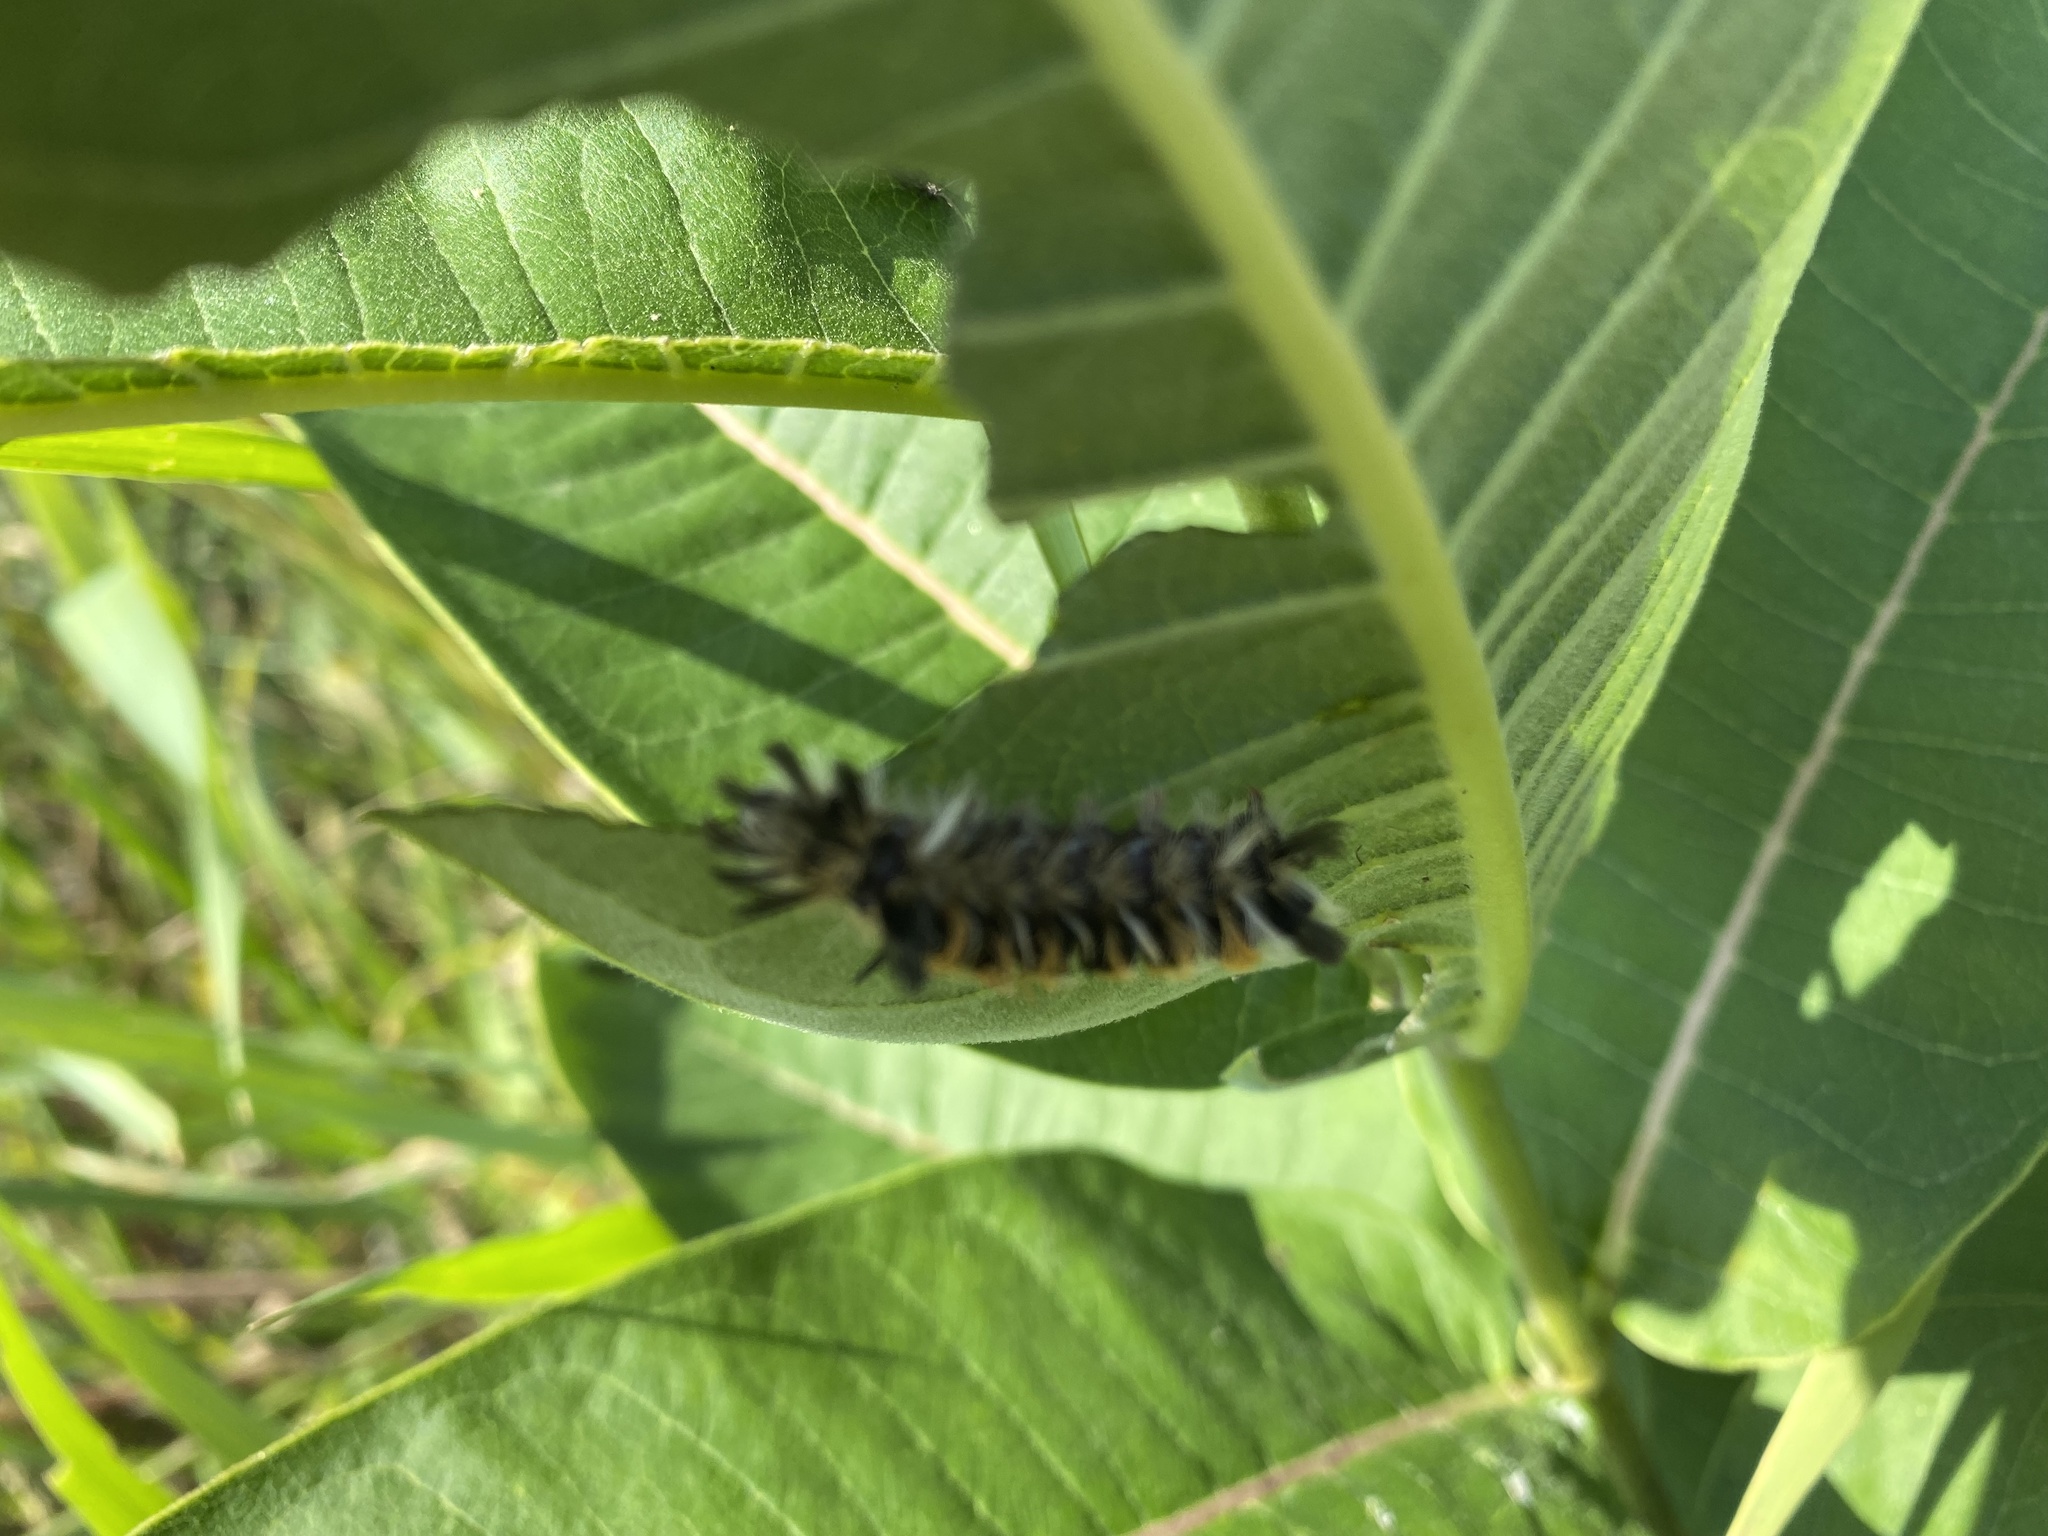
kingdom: Animalia
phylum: Arthropoda
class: Insecta
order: Lepidoptera
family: Erebidae
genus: Euchaetes
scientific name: Euchaetes egle
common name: Milkweed tussock moth
